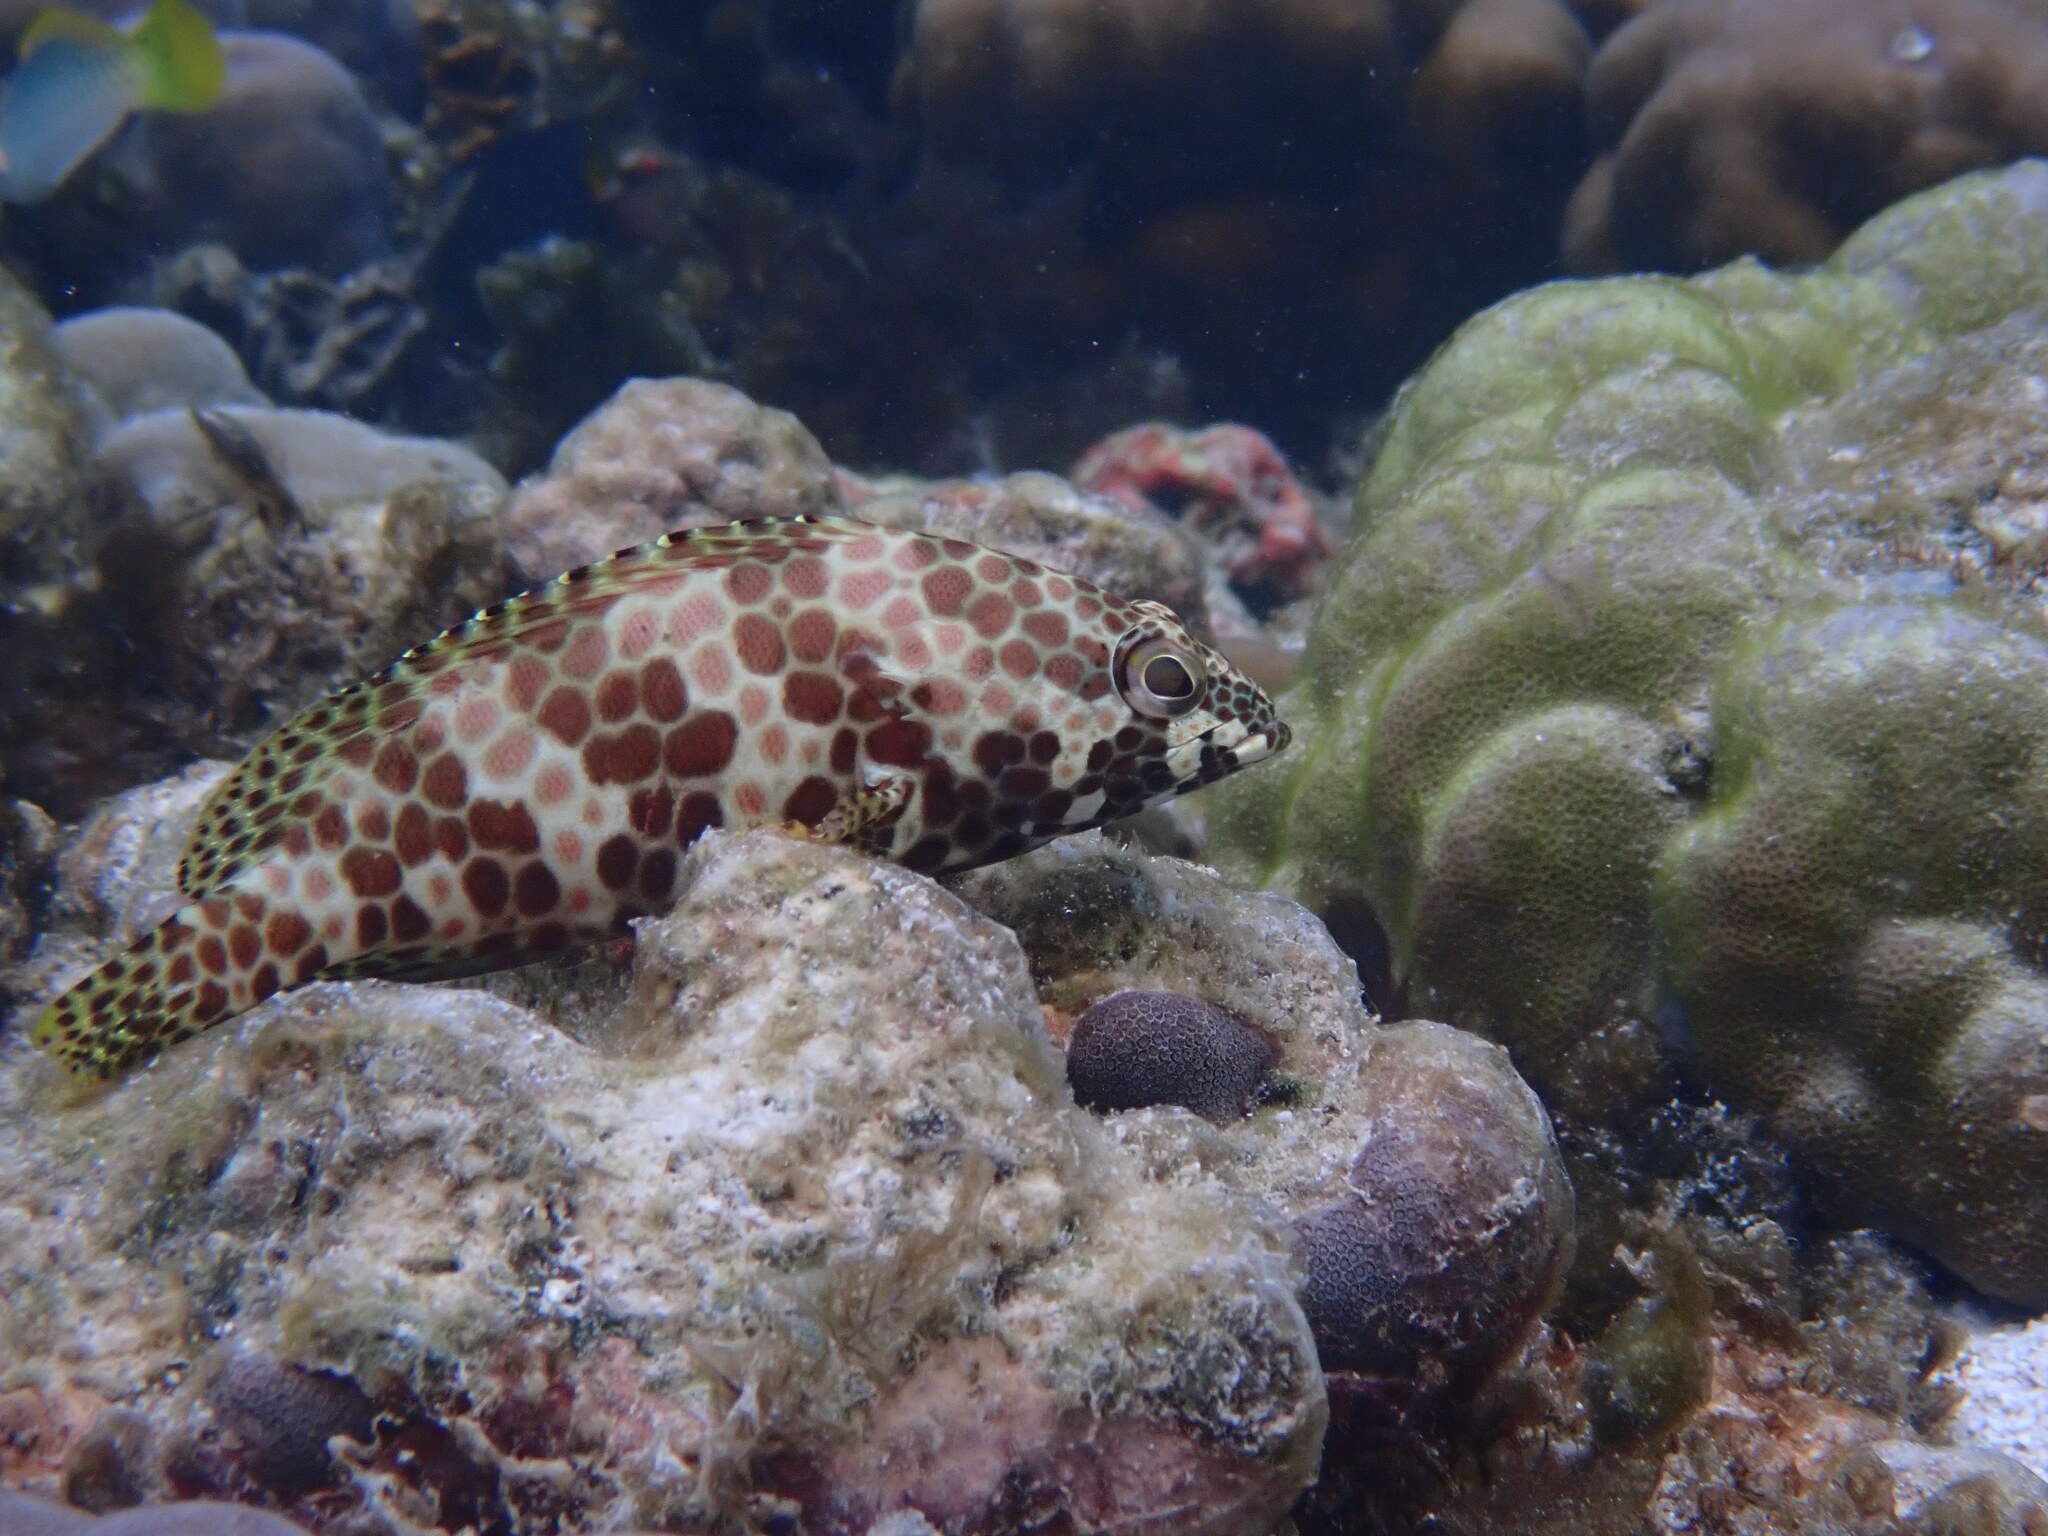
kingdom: Animalia
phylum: Chordata
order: Perciformes
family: Serranidae
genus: Epinephelus
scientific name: Epinephelus merra
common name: Honeycomb grouper
